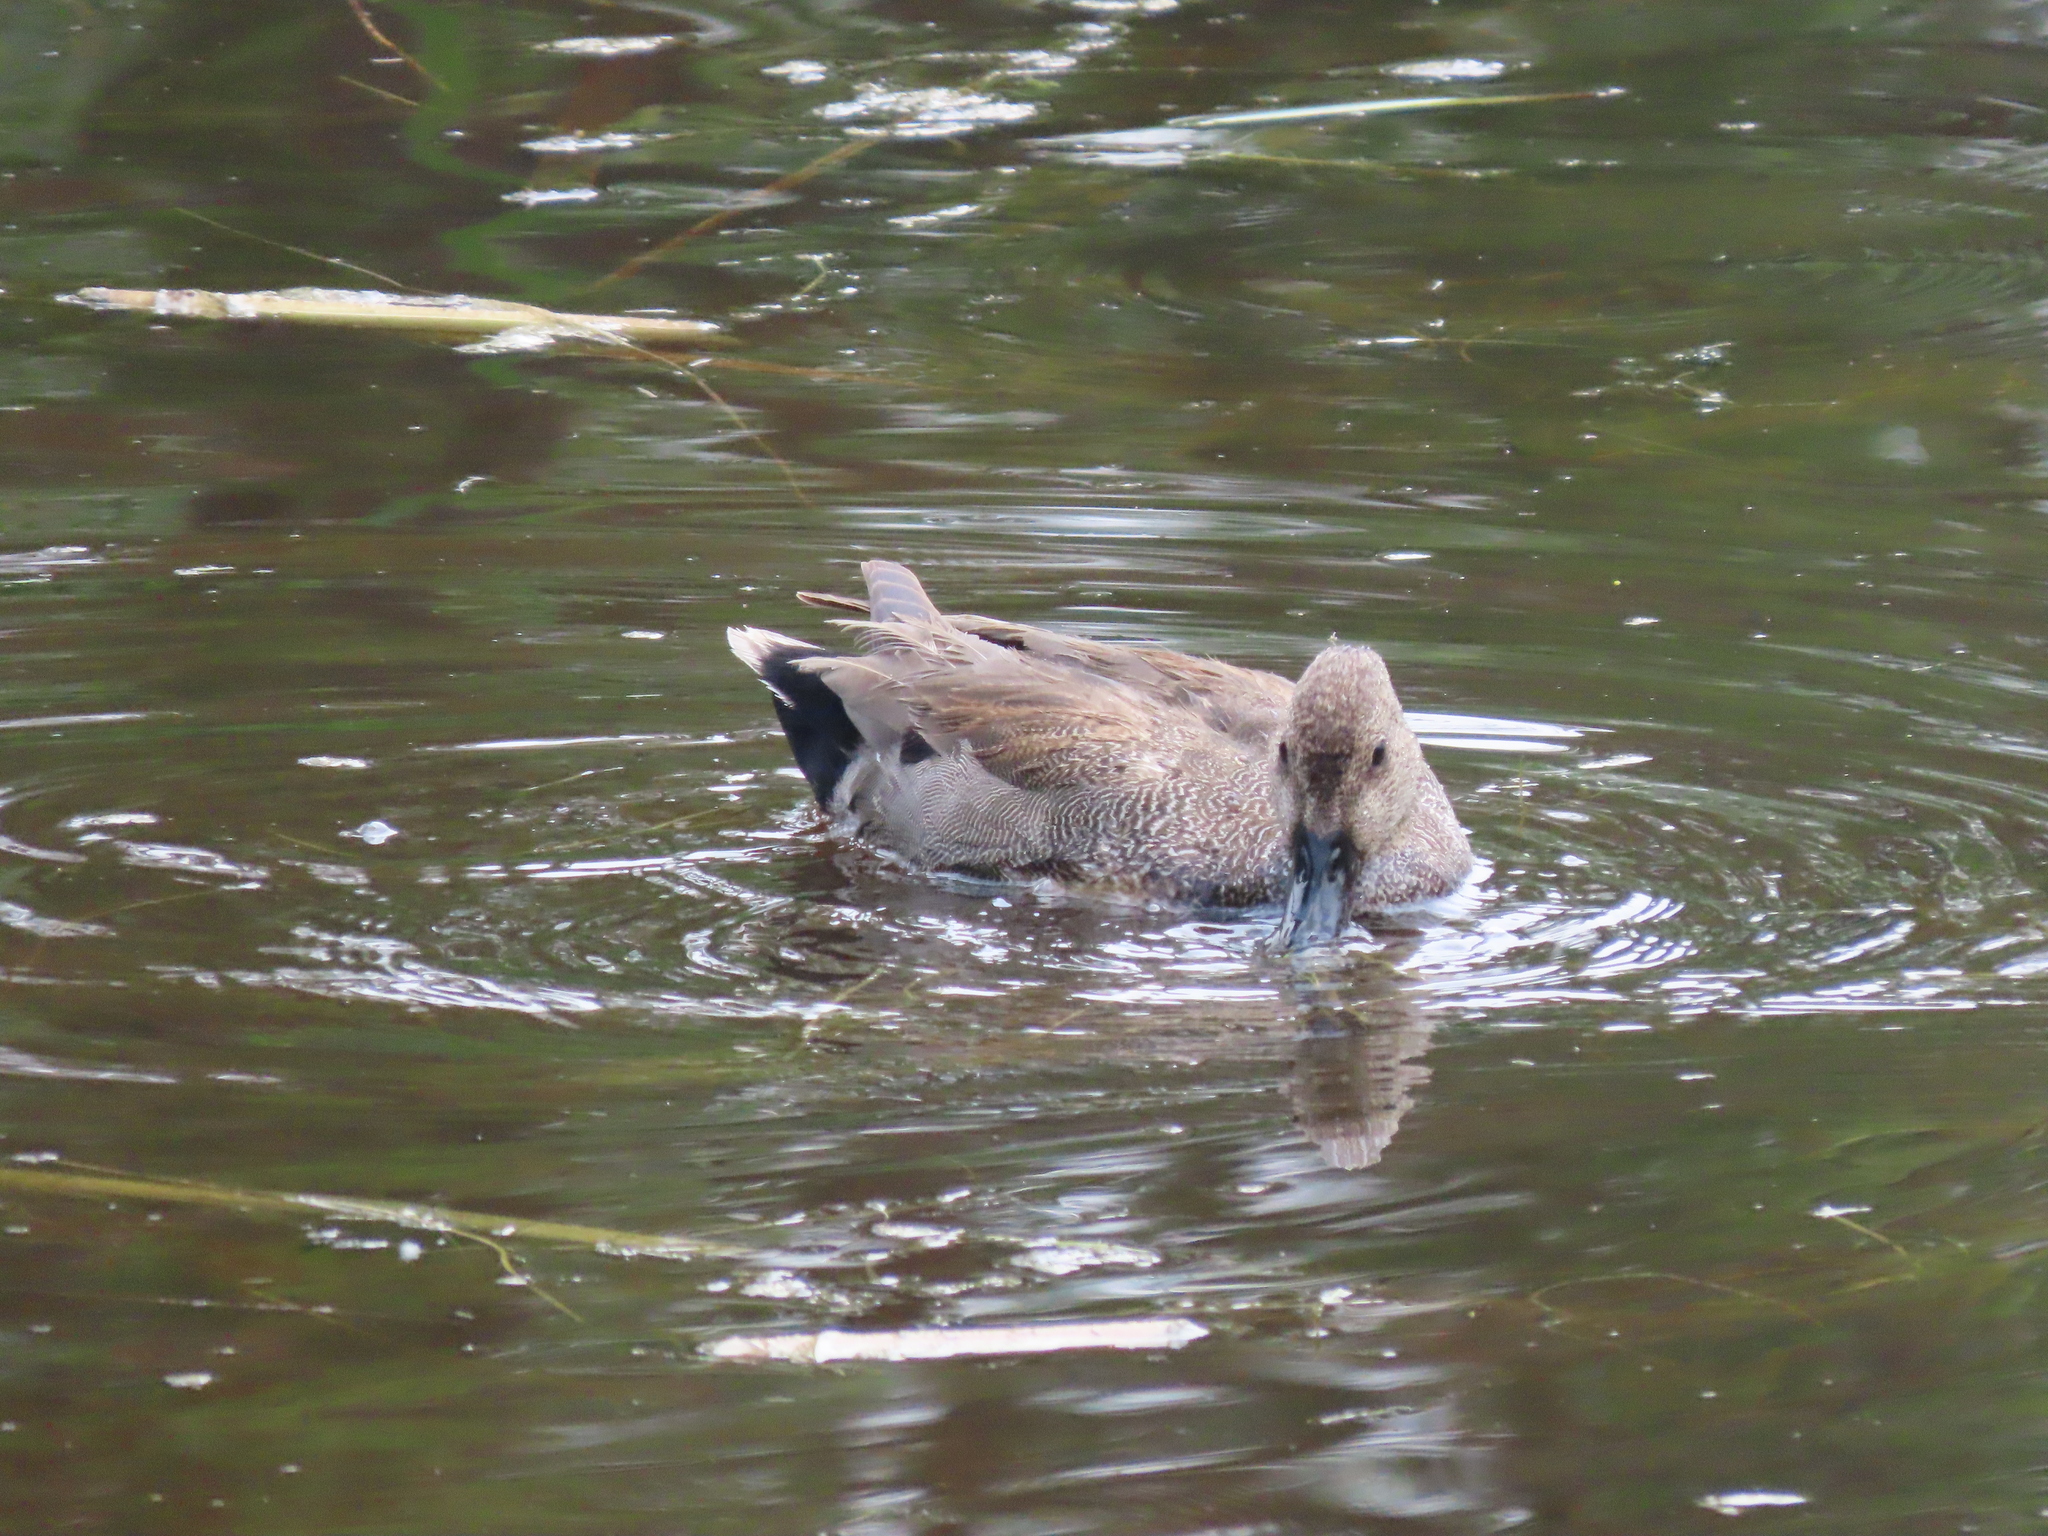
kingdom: Animalia
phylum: Chordata
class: Aves
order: Anseriformes
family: Anatidae
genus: Mareca
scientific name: Mareca strepera
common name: Gadwall
